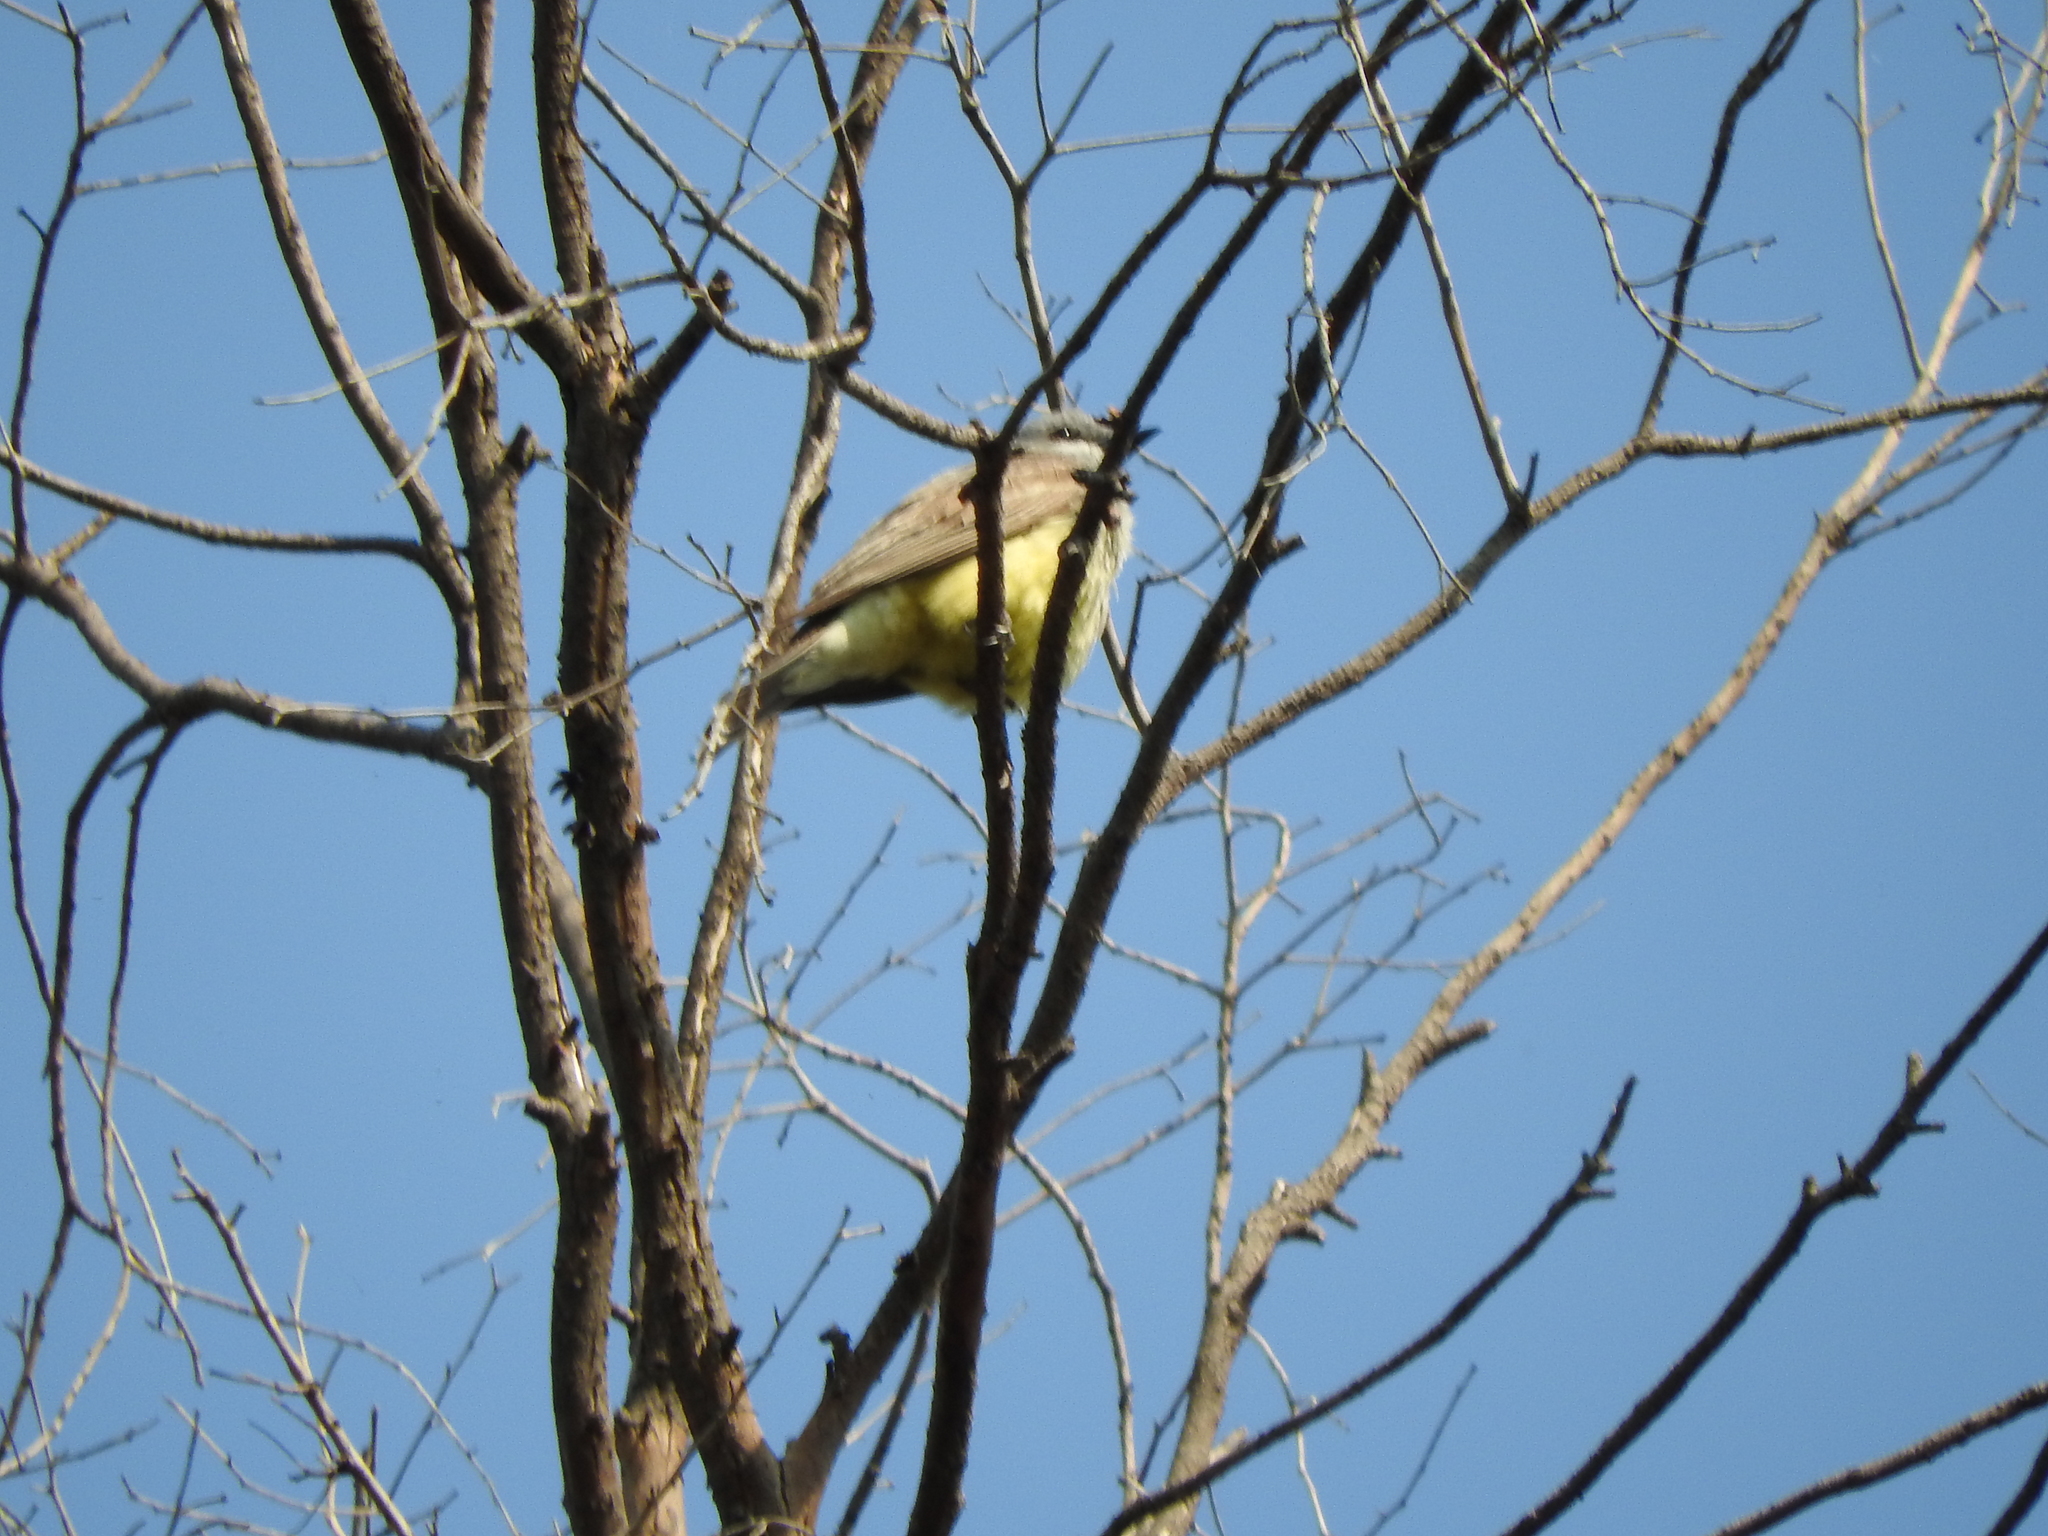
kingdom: Animalia
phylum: Chordata
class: Aves
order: Passeriformes
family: Tyrannidae
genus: Tyrannus
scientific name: Tyrannus vociferans
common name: Cassin's kingbird
